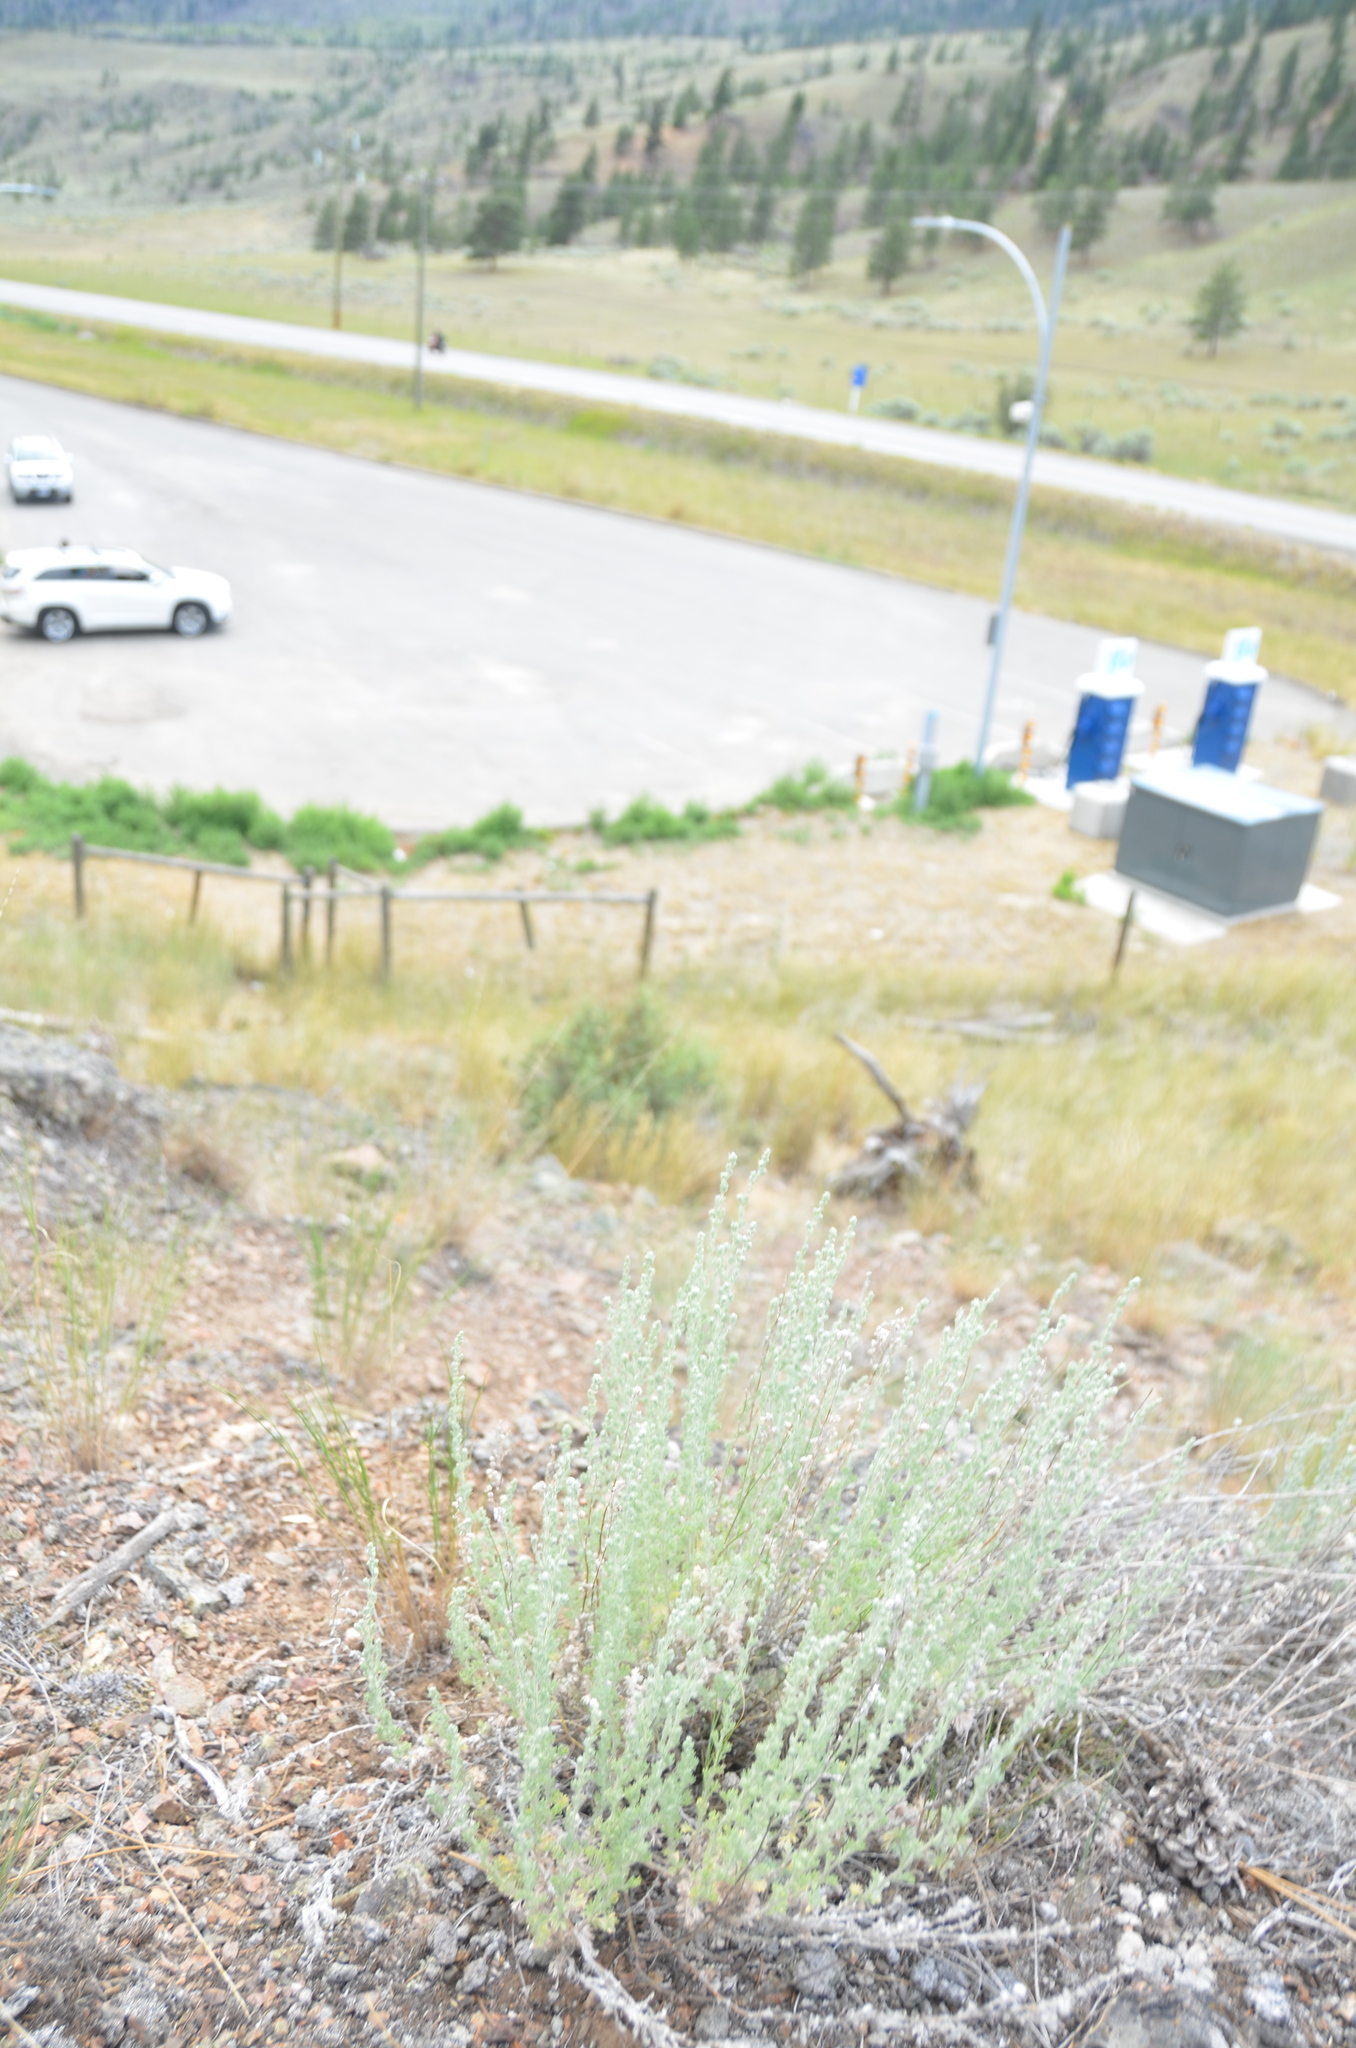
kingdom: Plantae
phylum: Tracheophyta
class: Magnoliopsida
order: Asterales
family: Asteraceae
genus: Artemisia
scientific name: Artemisia frigida
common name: Prairie sagewort
